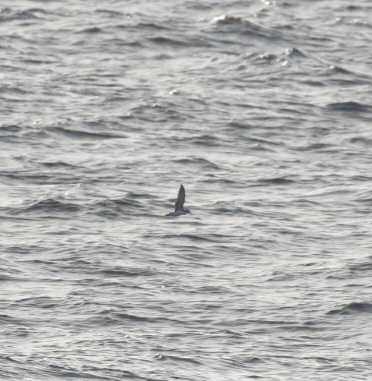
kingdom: Animalia
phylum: Chordata
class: Aves
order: Procellariiformes
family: Procellariidae
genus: Puffinus
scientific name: Puffinus baroli
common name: Barolo shearwater
